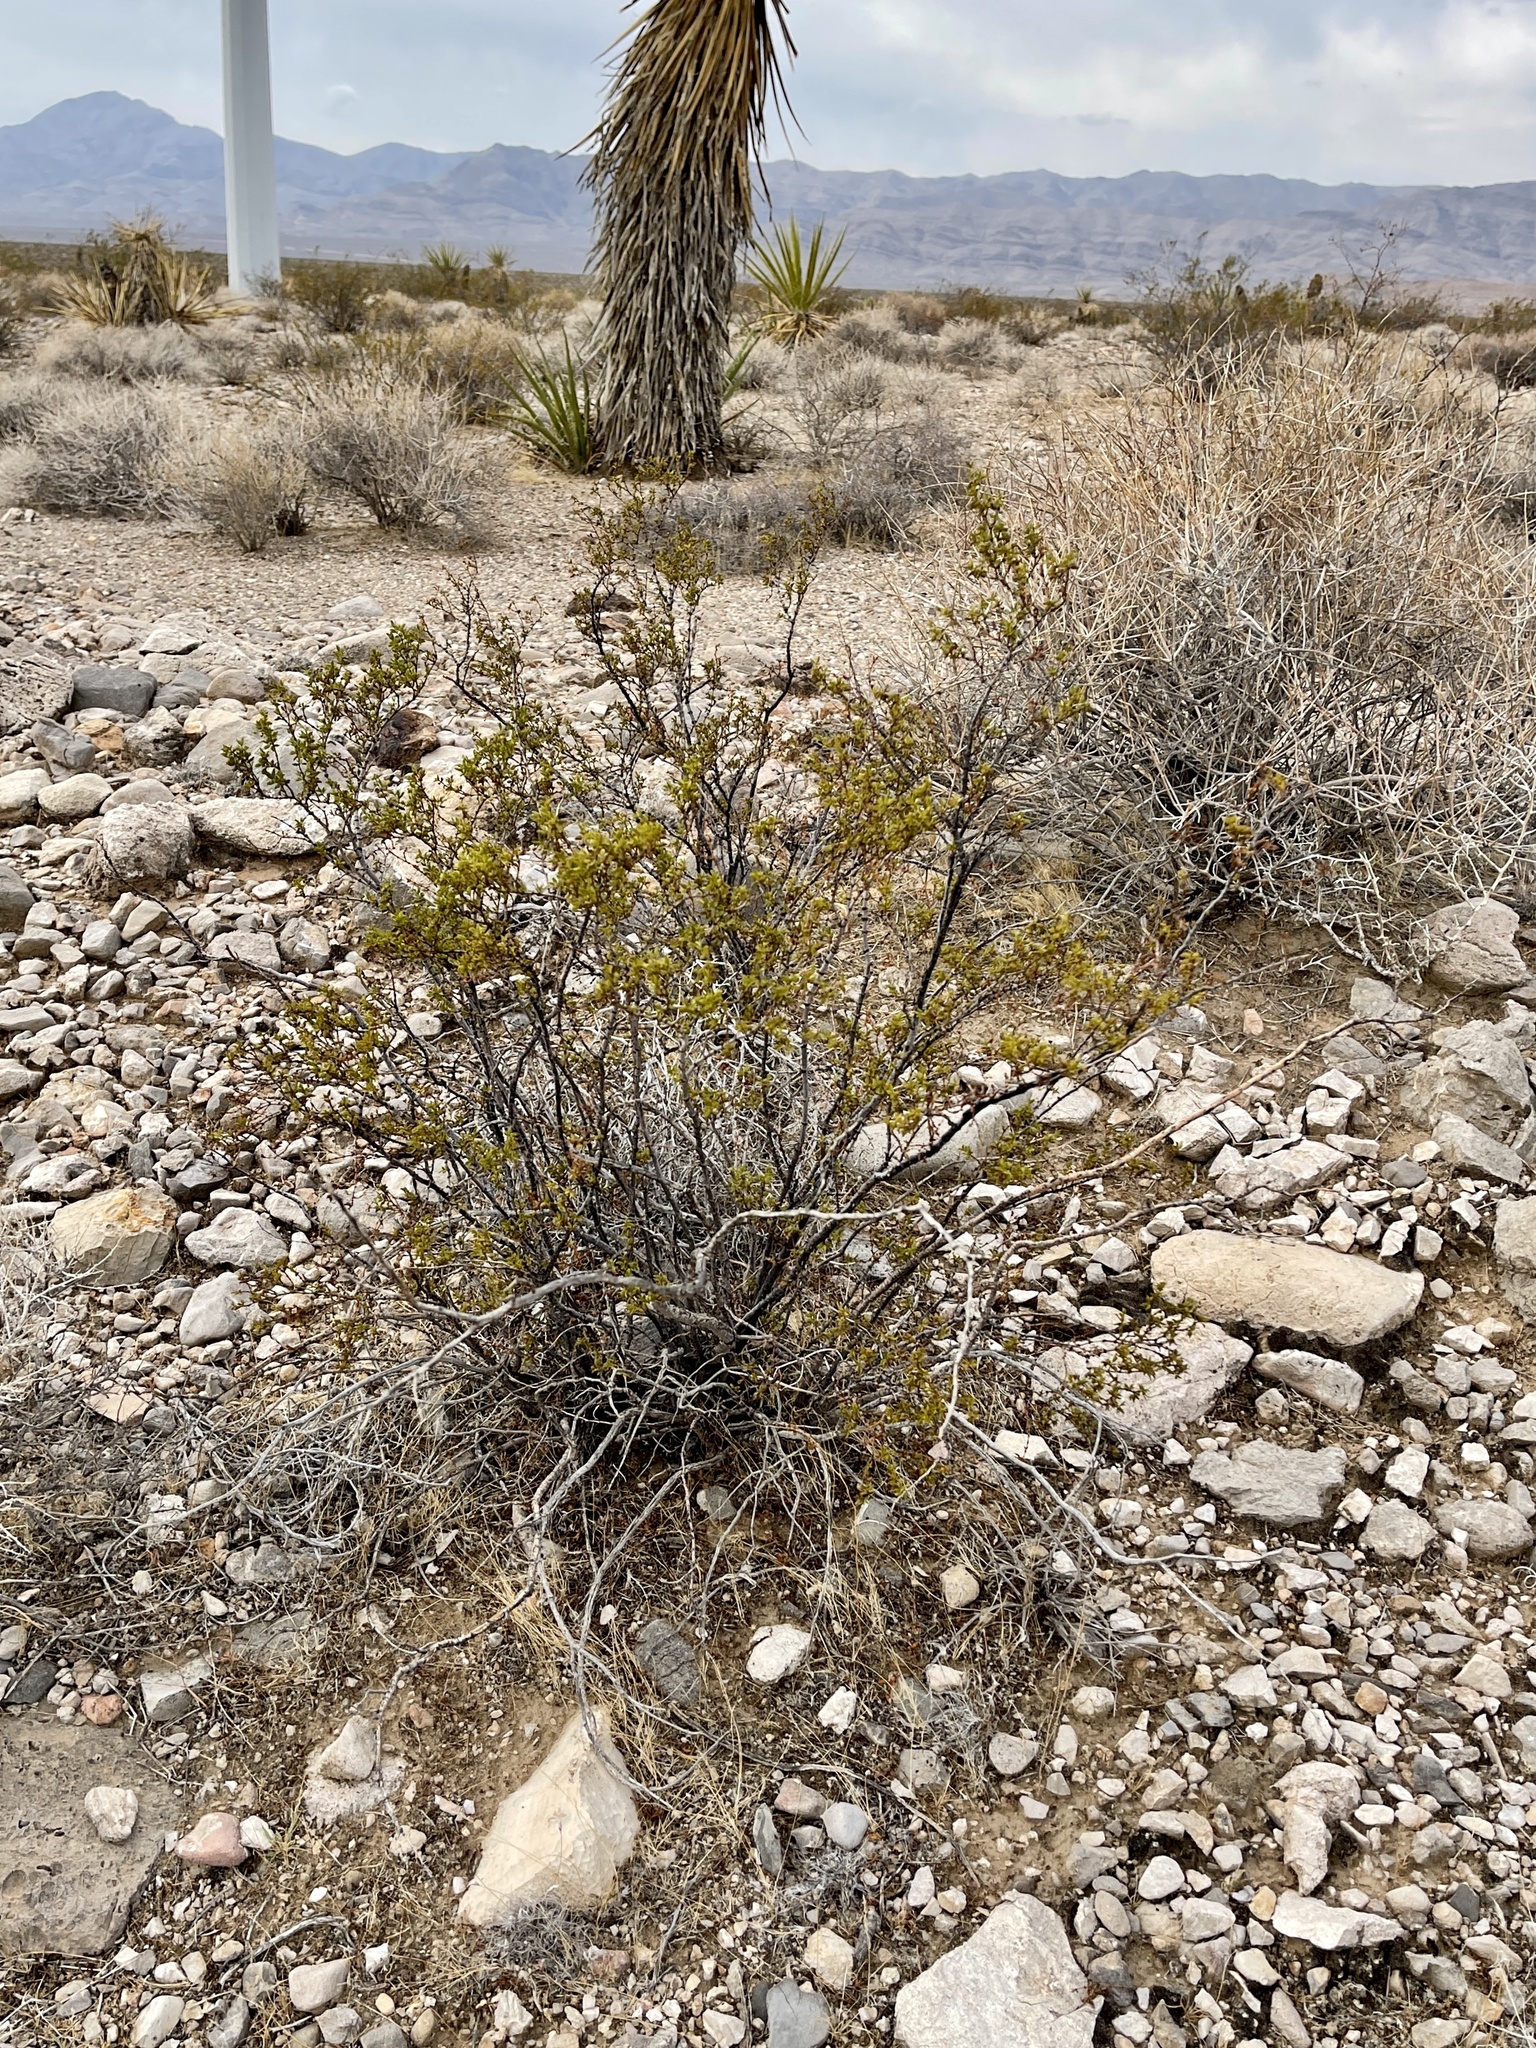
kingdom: Plantae
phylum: Tracheophyta
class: Magnoliopsida
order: Zygophyllales
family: Zygophyllaceae
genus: Larrea
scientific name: Larrea tridentata
